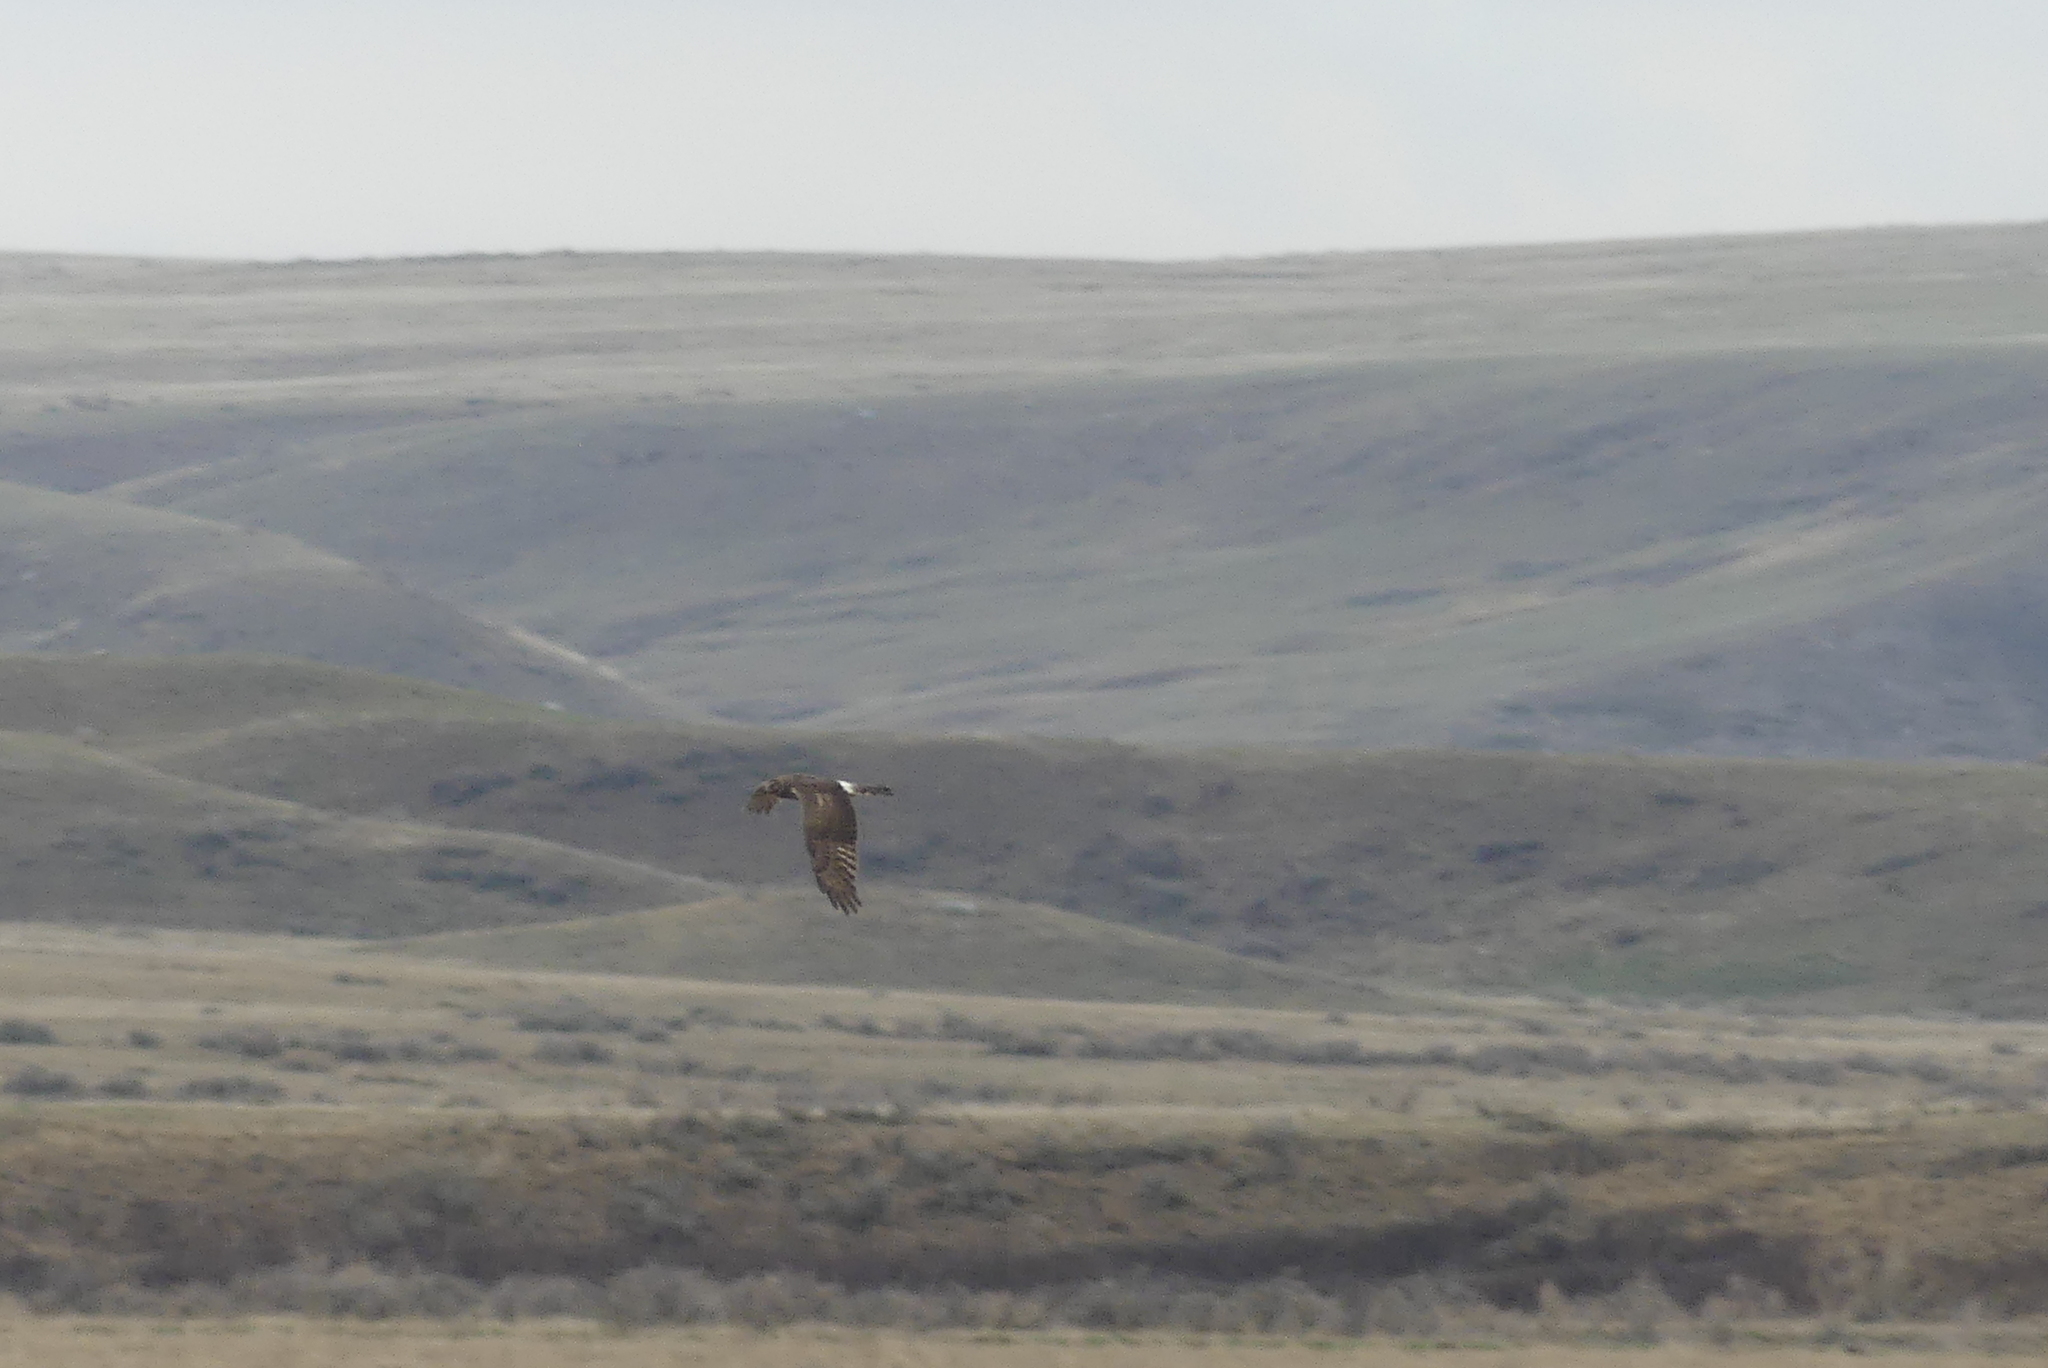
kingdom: Animalia
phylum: Chordata
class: Aves
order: Accipitriformes
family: Accipitridae
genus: Circus
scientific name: Circus cyaneus
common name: Hen harrier
